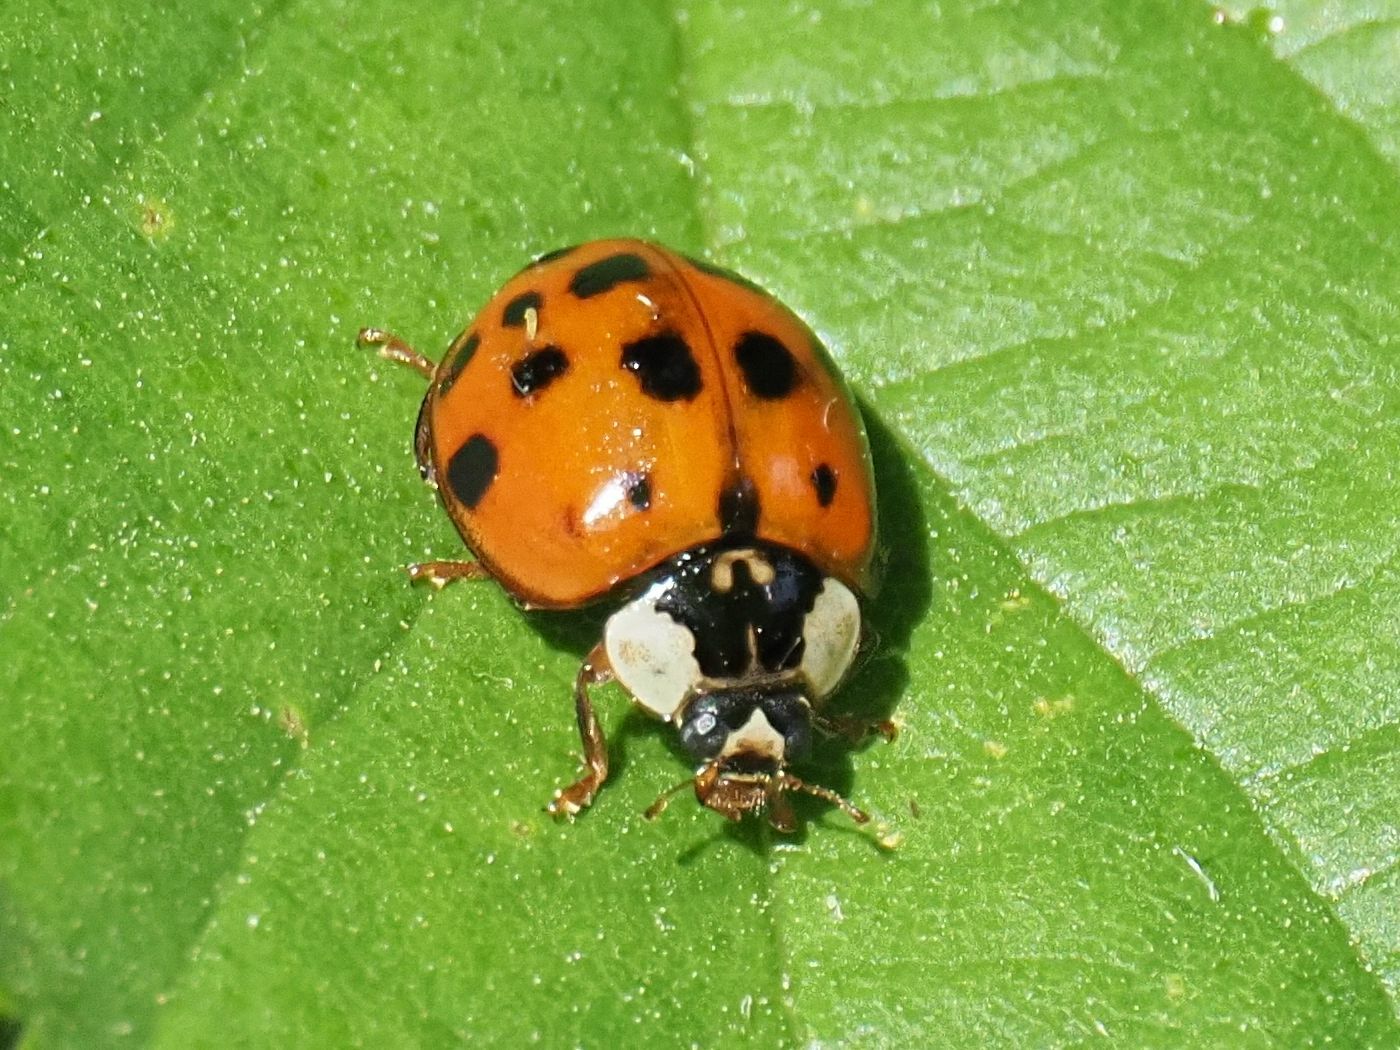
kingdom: Animalia
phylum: Arthropoda
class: Insecta
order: Coleoptera
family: Coccinellidae
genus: Harmonia
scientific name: Harmonia axyridis
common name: Harlequin ladybird
